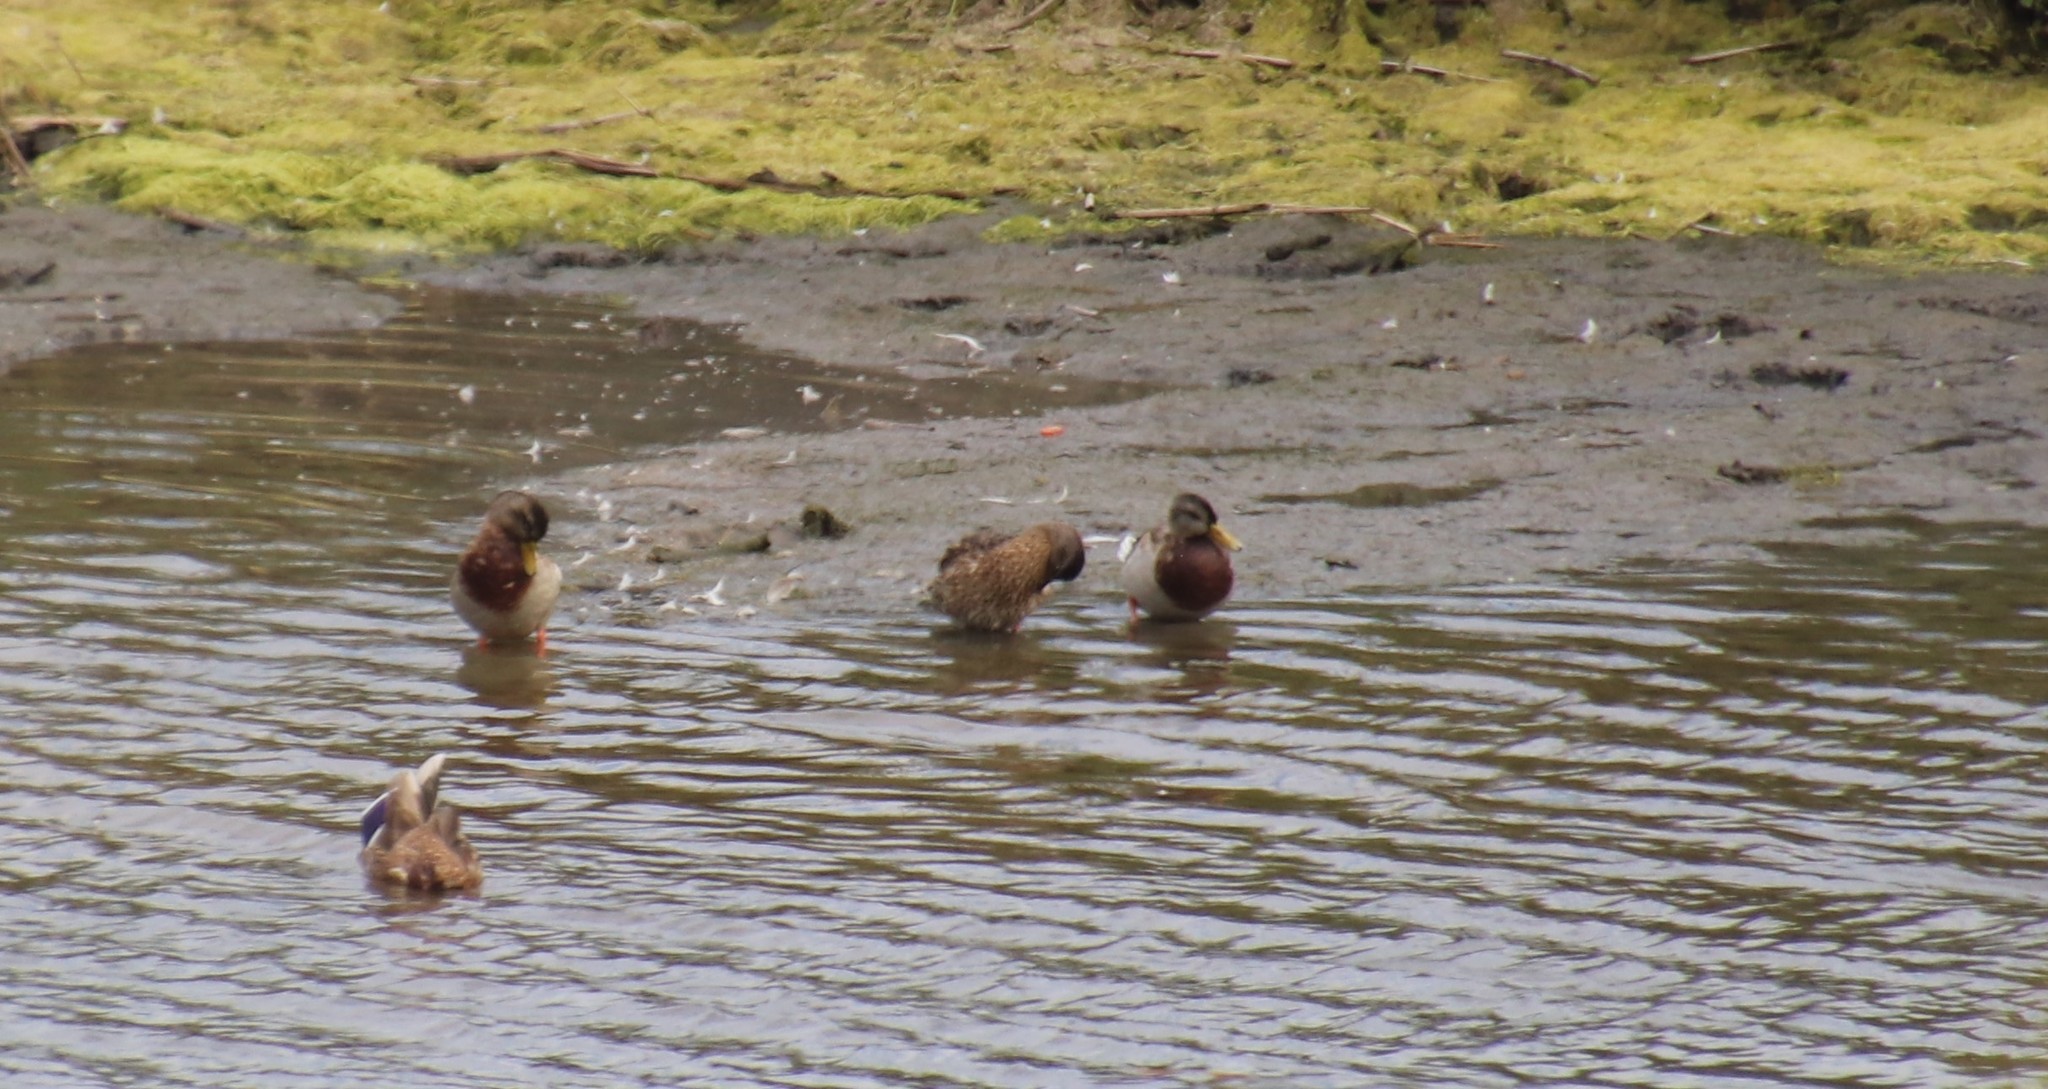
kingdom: Animalia
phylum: Chordata
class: Aves
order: Anseriformes
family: Anatidae
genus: Anas
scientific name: Anas platyrhynchos
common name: Mallard
